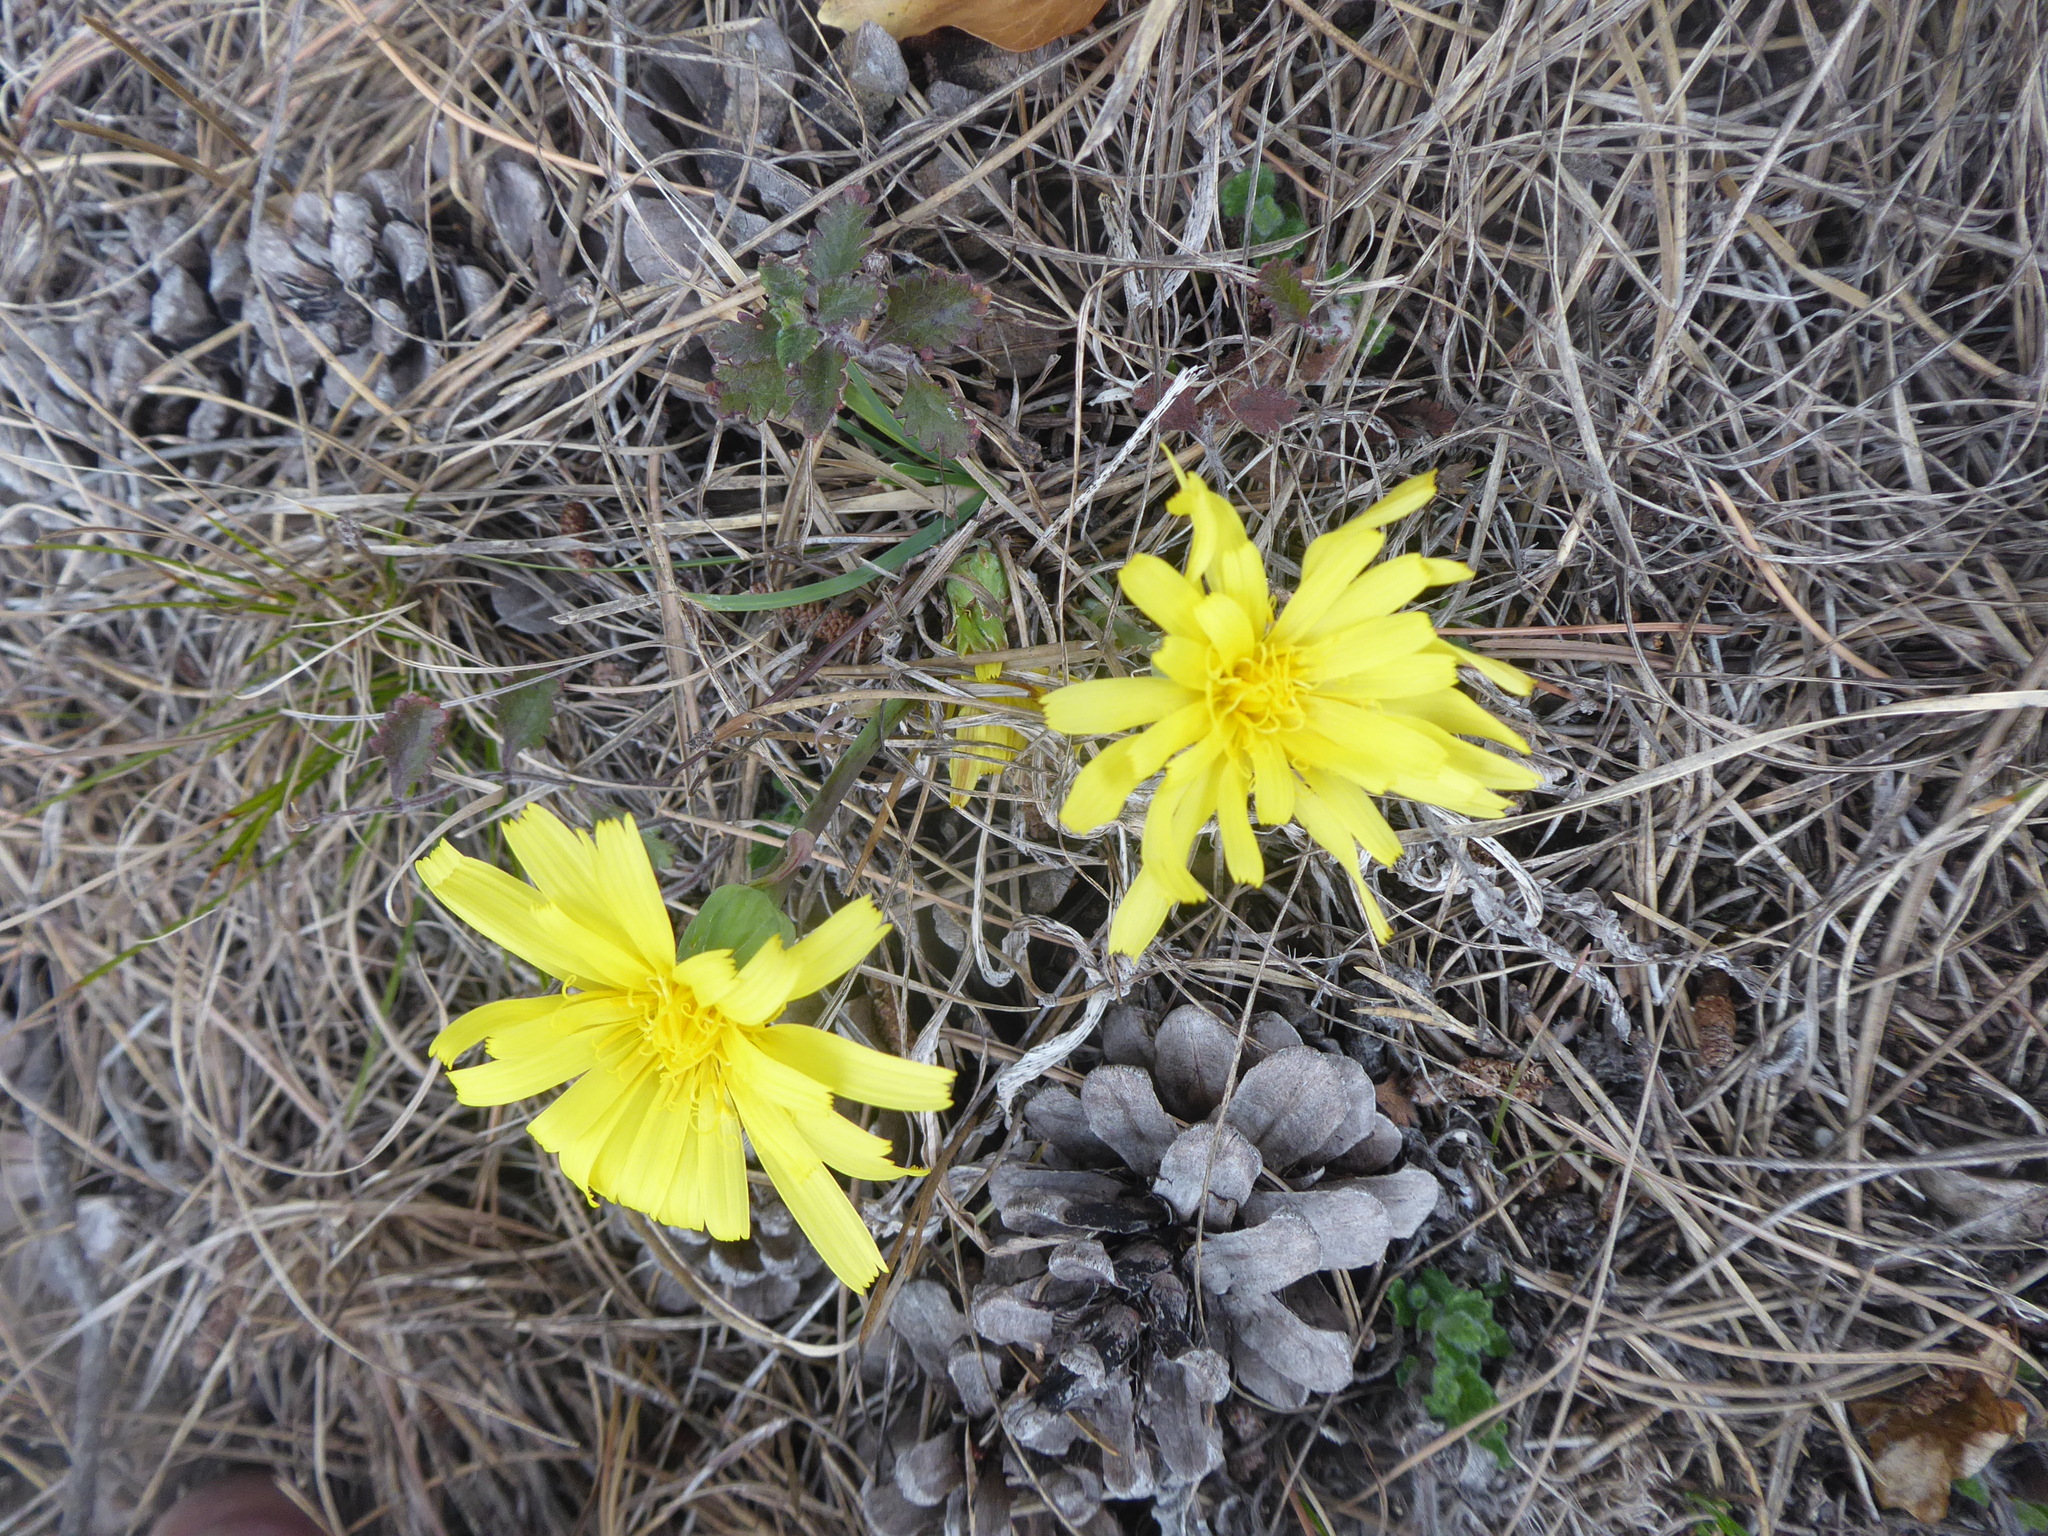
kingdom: Plantae
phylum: Tracheophyta
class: Magnoliopsida
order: Asterales
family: Asteraceae
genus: Takhtajaniantha
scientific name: Takhtajaniantha austriaca
